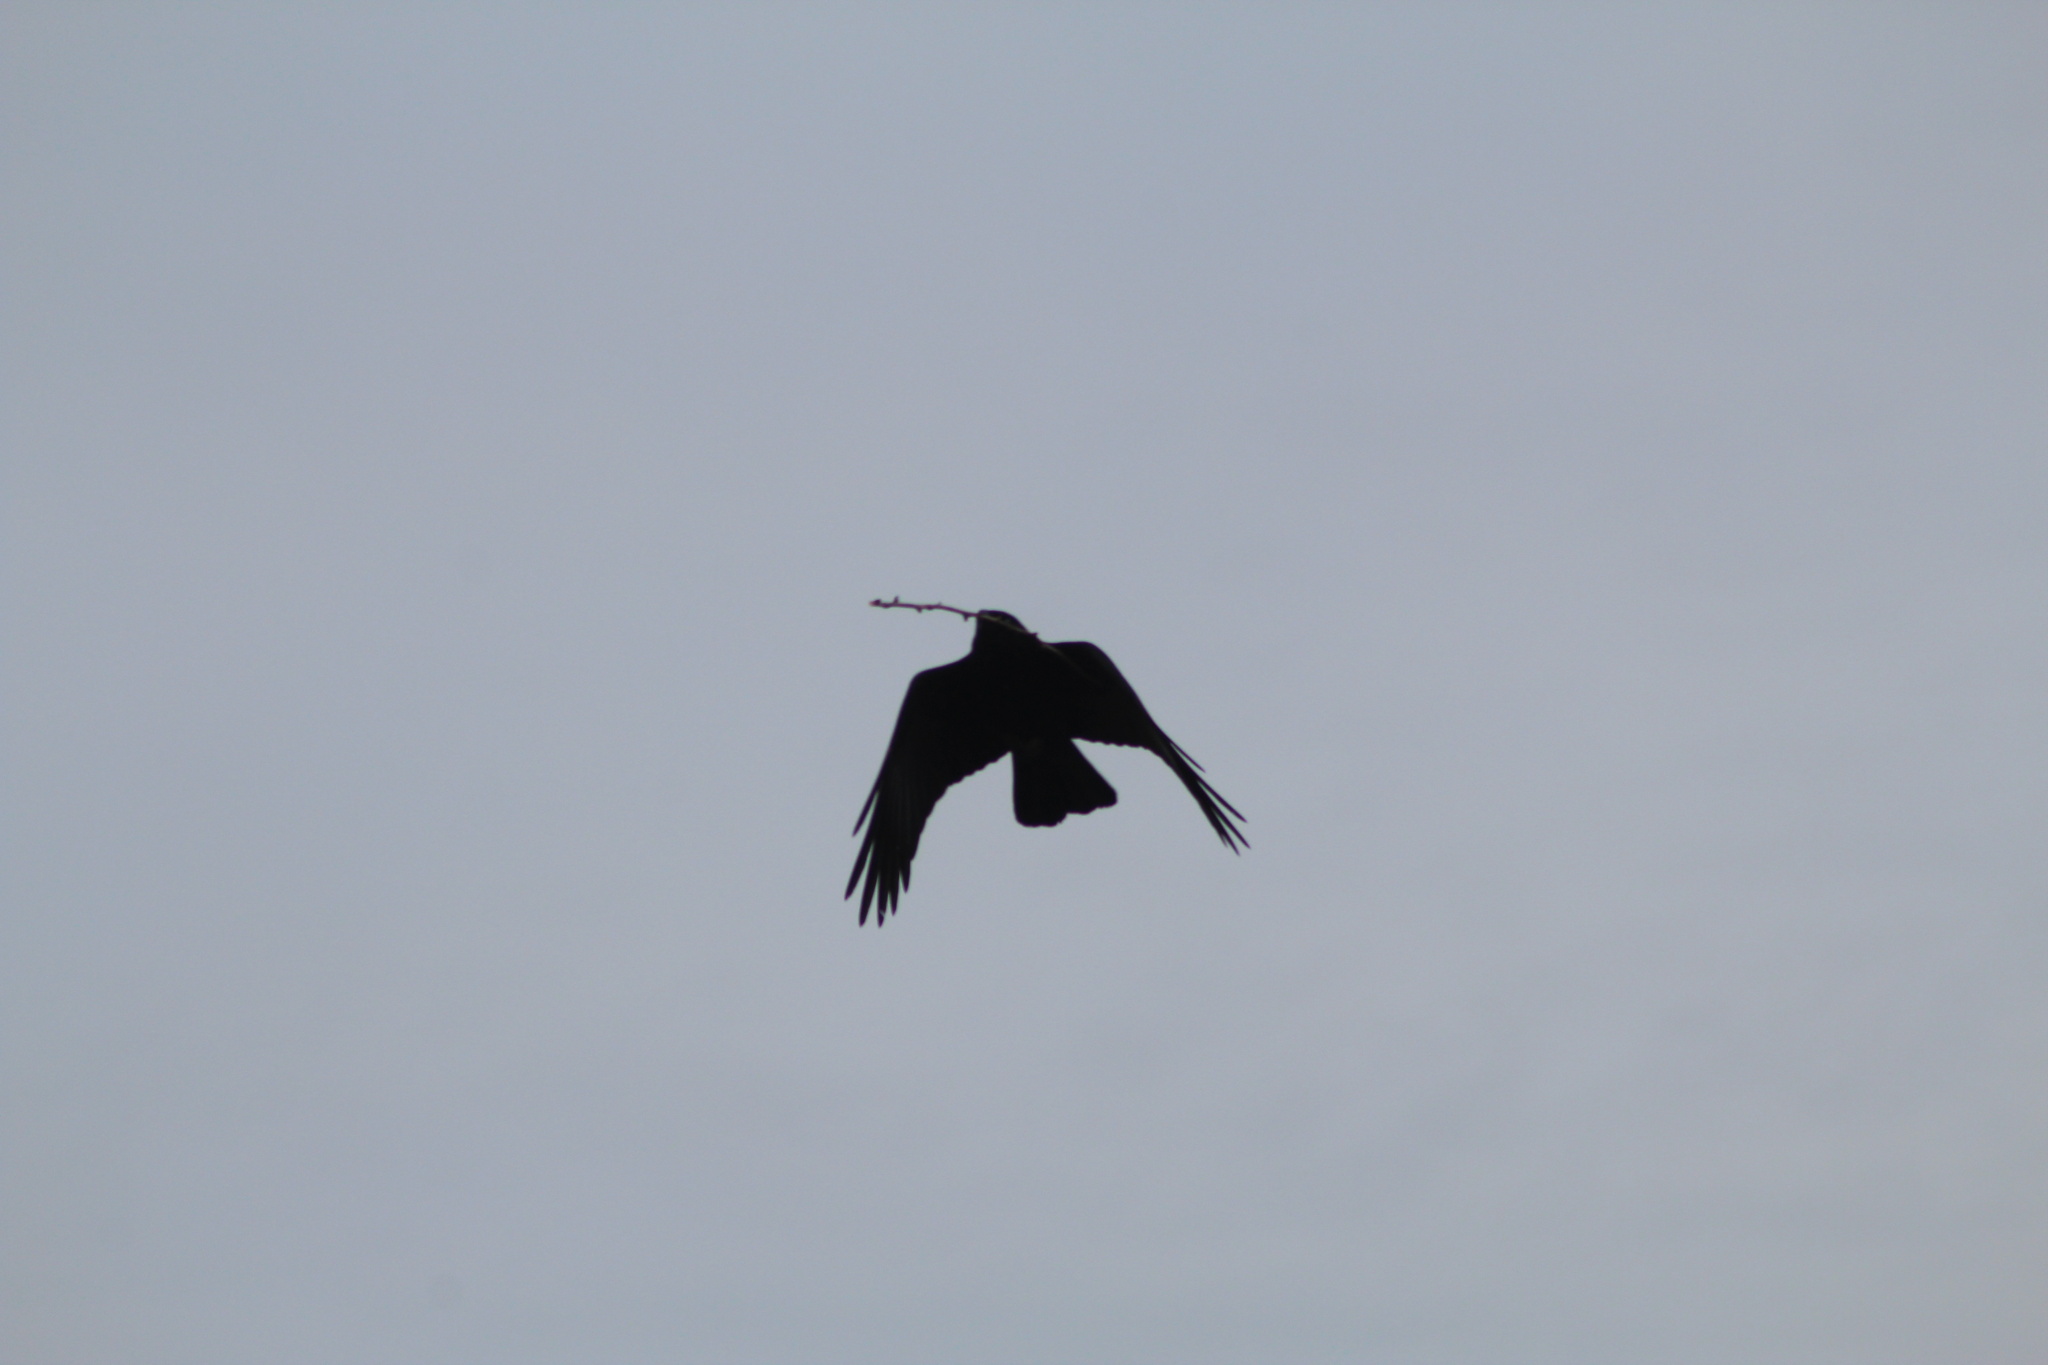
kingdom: Animalia
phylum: Chordata
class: Aves
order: Passeriformes
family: Corvidae
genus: Corvus
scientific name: Corvus brachyrhynchos
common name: American crow
